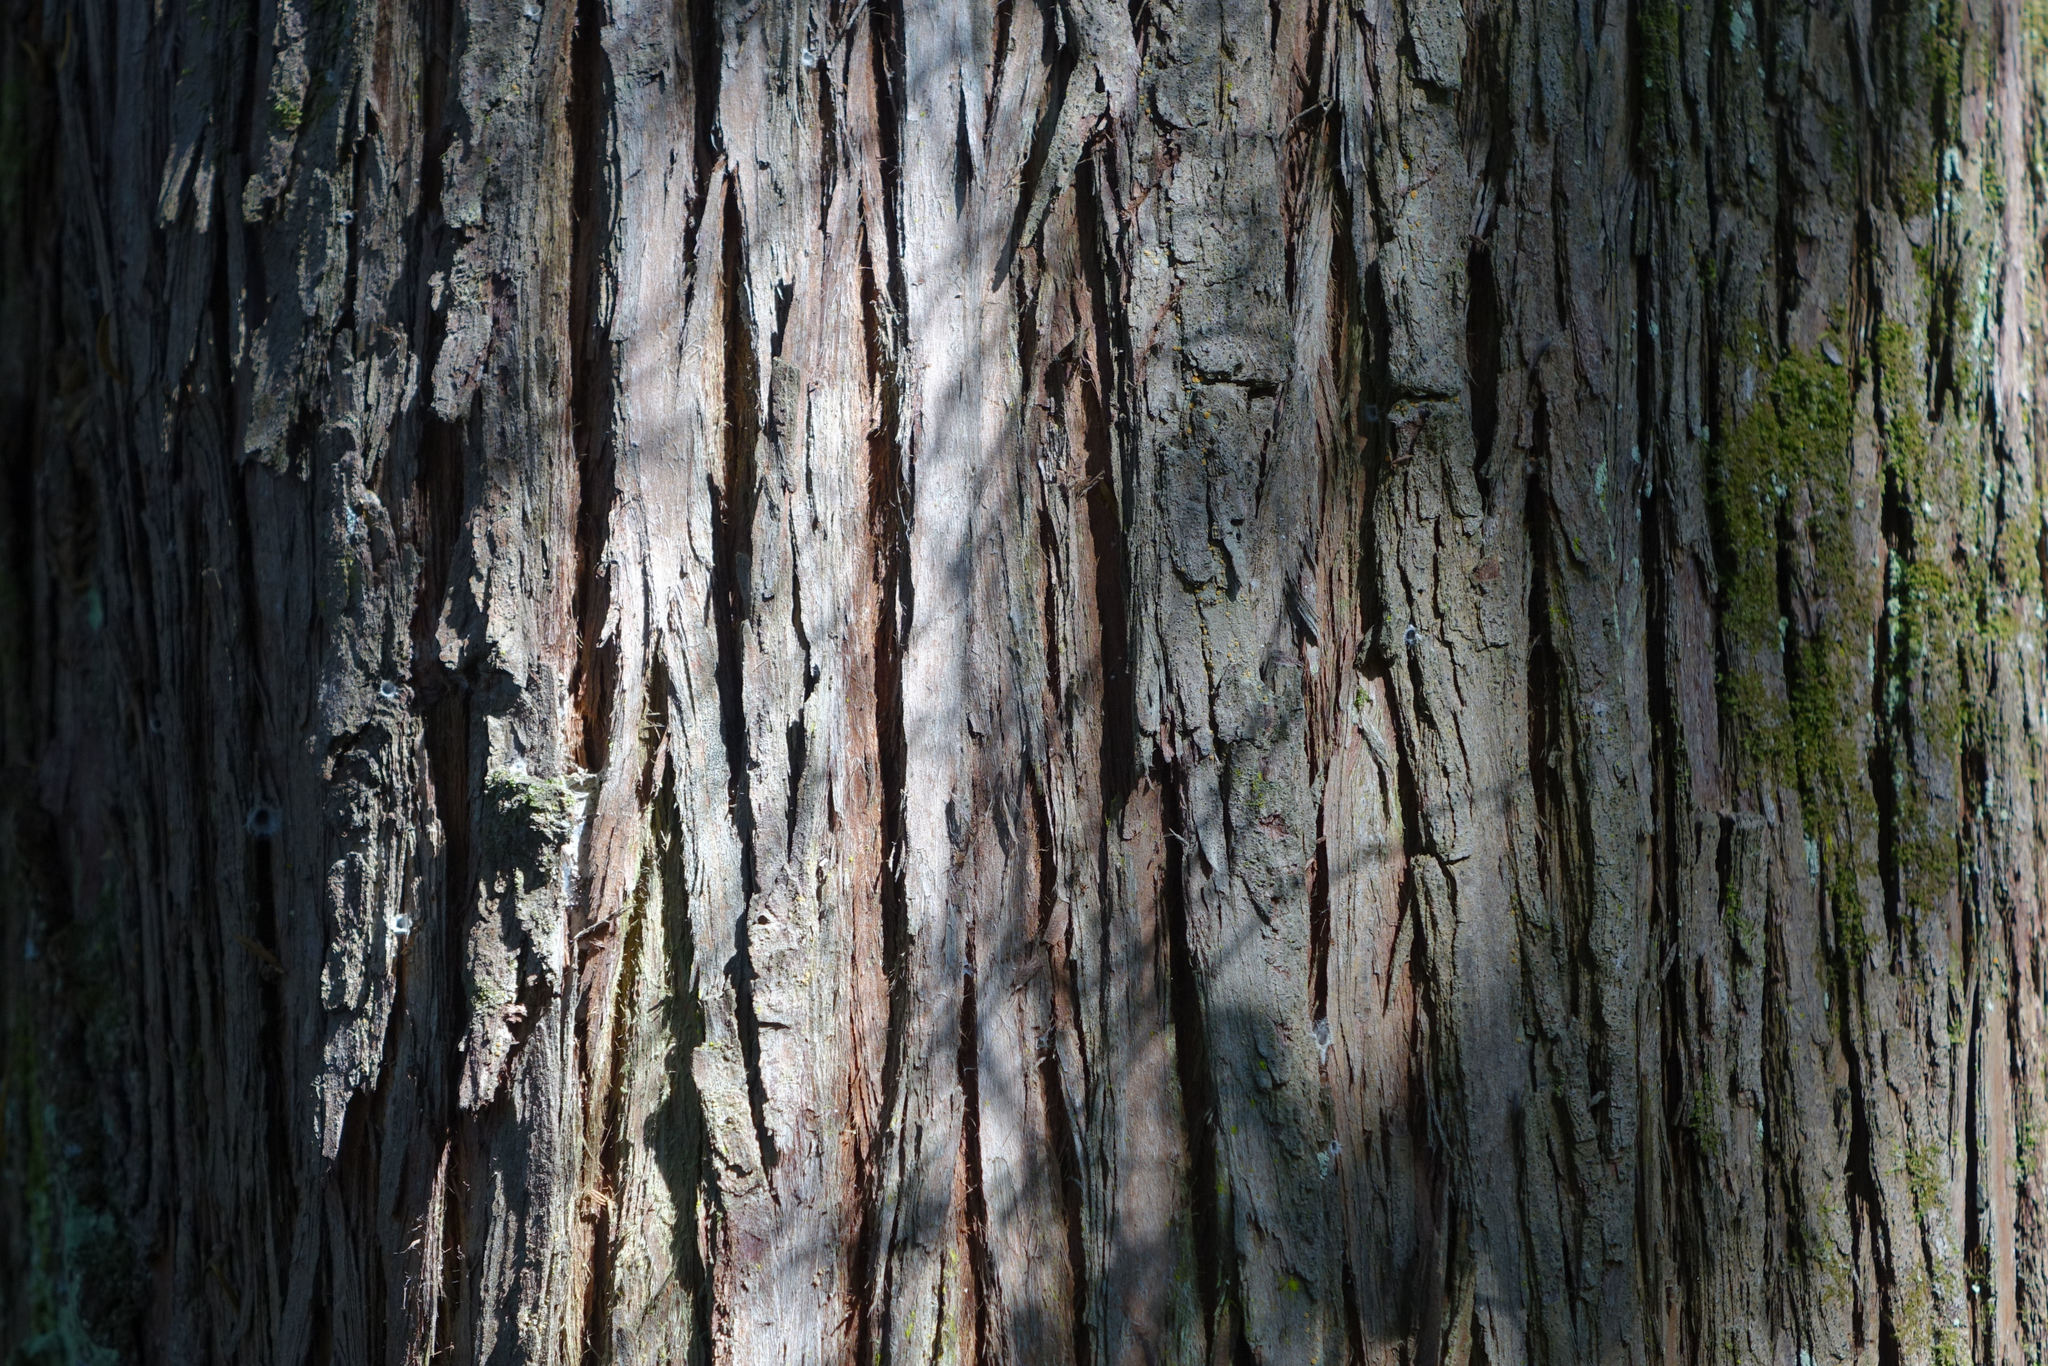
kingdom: Plantae
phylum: Tracheophyta
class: Pinopsida
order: Pinales
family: Podocarpaceae
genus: Podocarpus
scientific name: Podocarpus totara
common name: Totara
